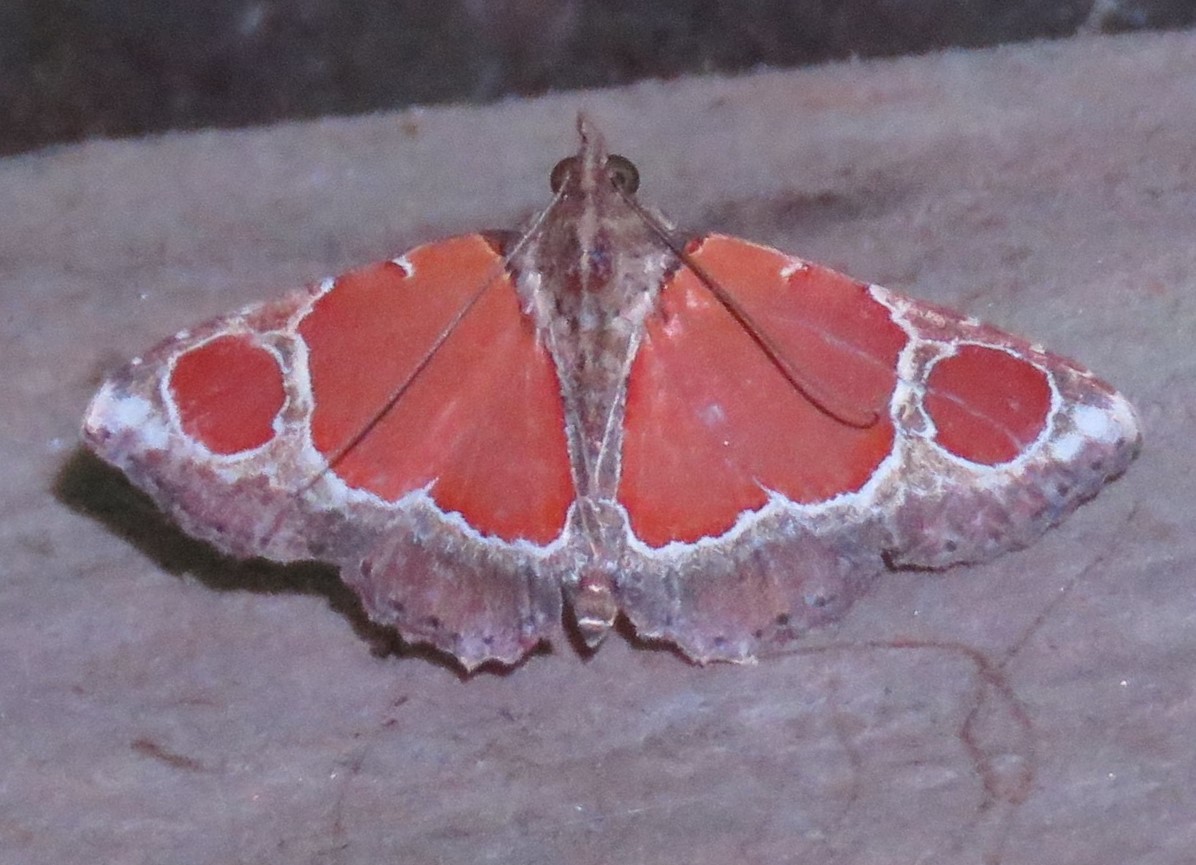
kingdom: Animalia
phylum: Arthropoda
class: Insecta
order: Lepidoptera
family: Noctuidae
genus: Tiyanreda
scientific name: Tiyanreda
